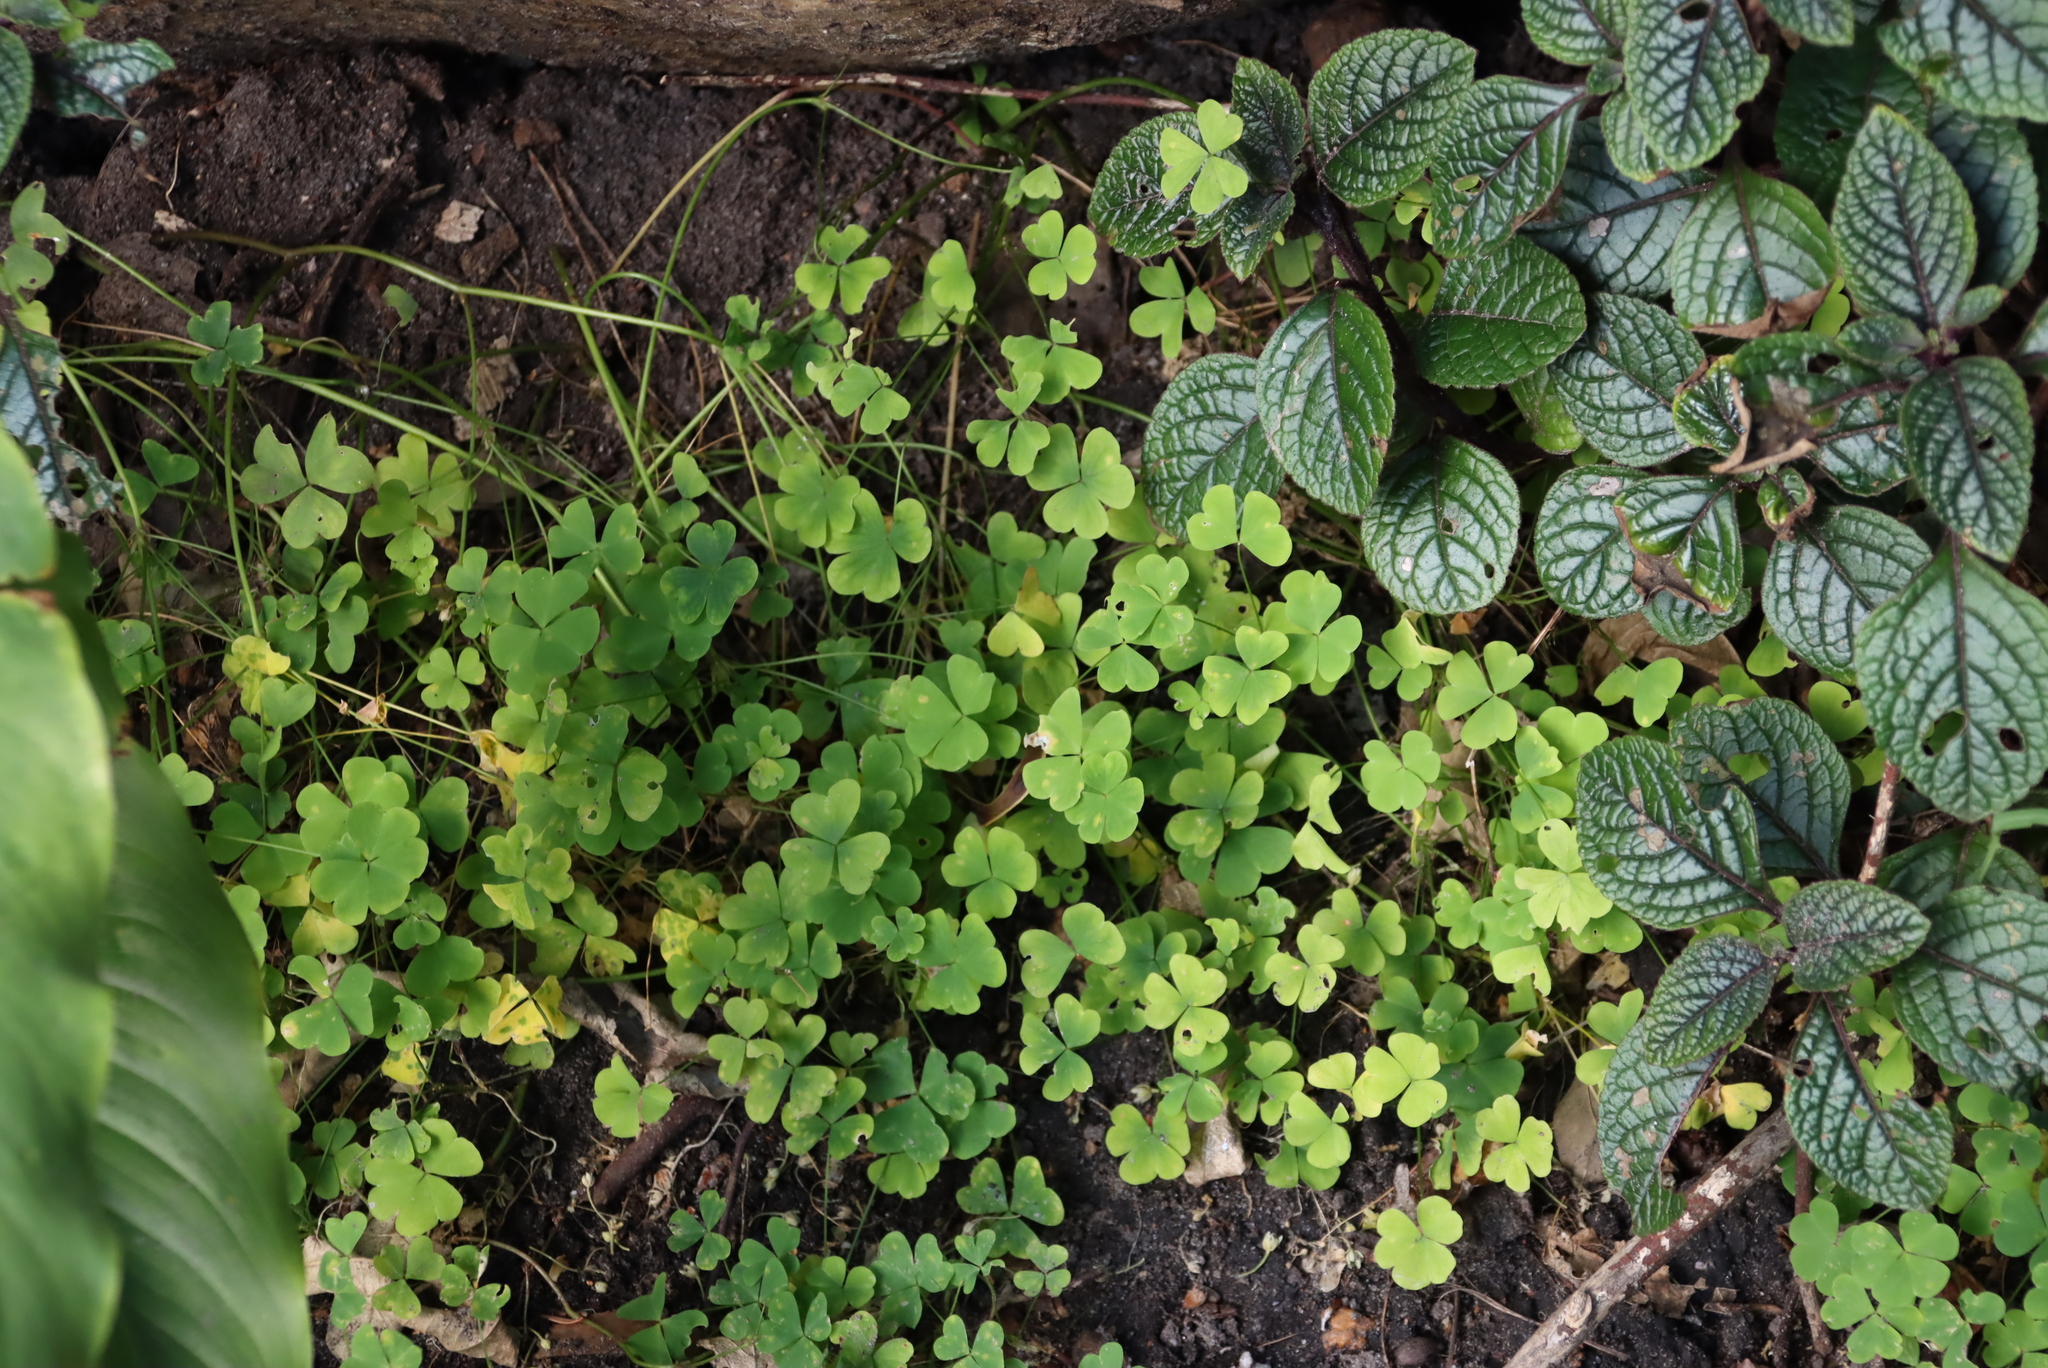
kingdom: Plantae
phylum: Tracheophyta
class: Magnoliopsida
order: Oxalidales
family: Oxalidaceae
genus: Oxalis
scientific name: Oxalis incarnata
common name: Pale pink-sorrel
